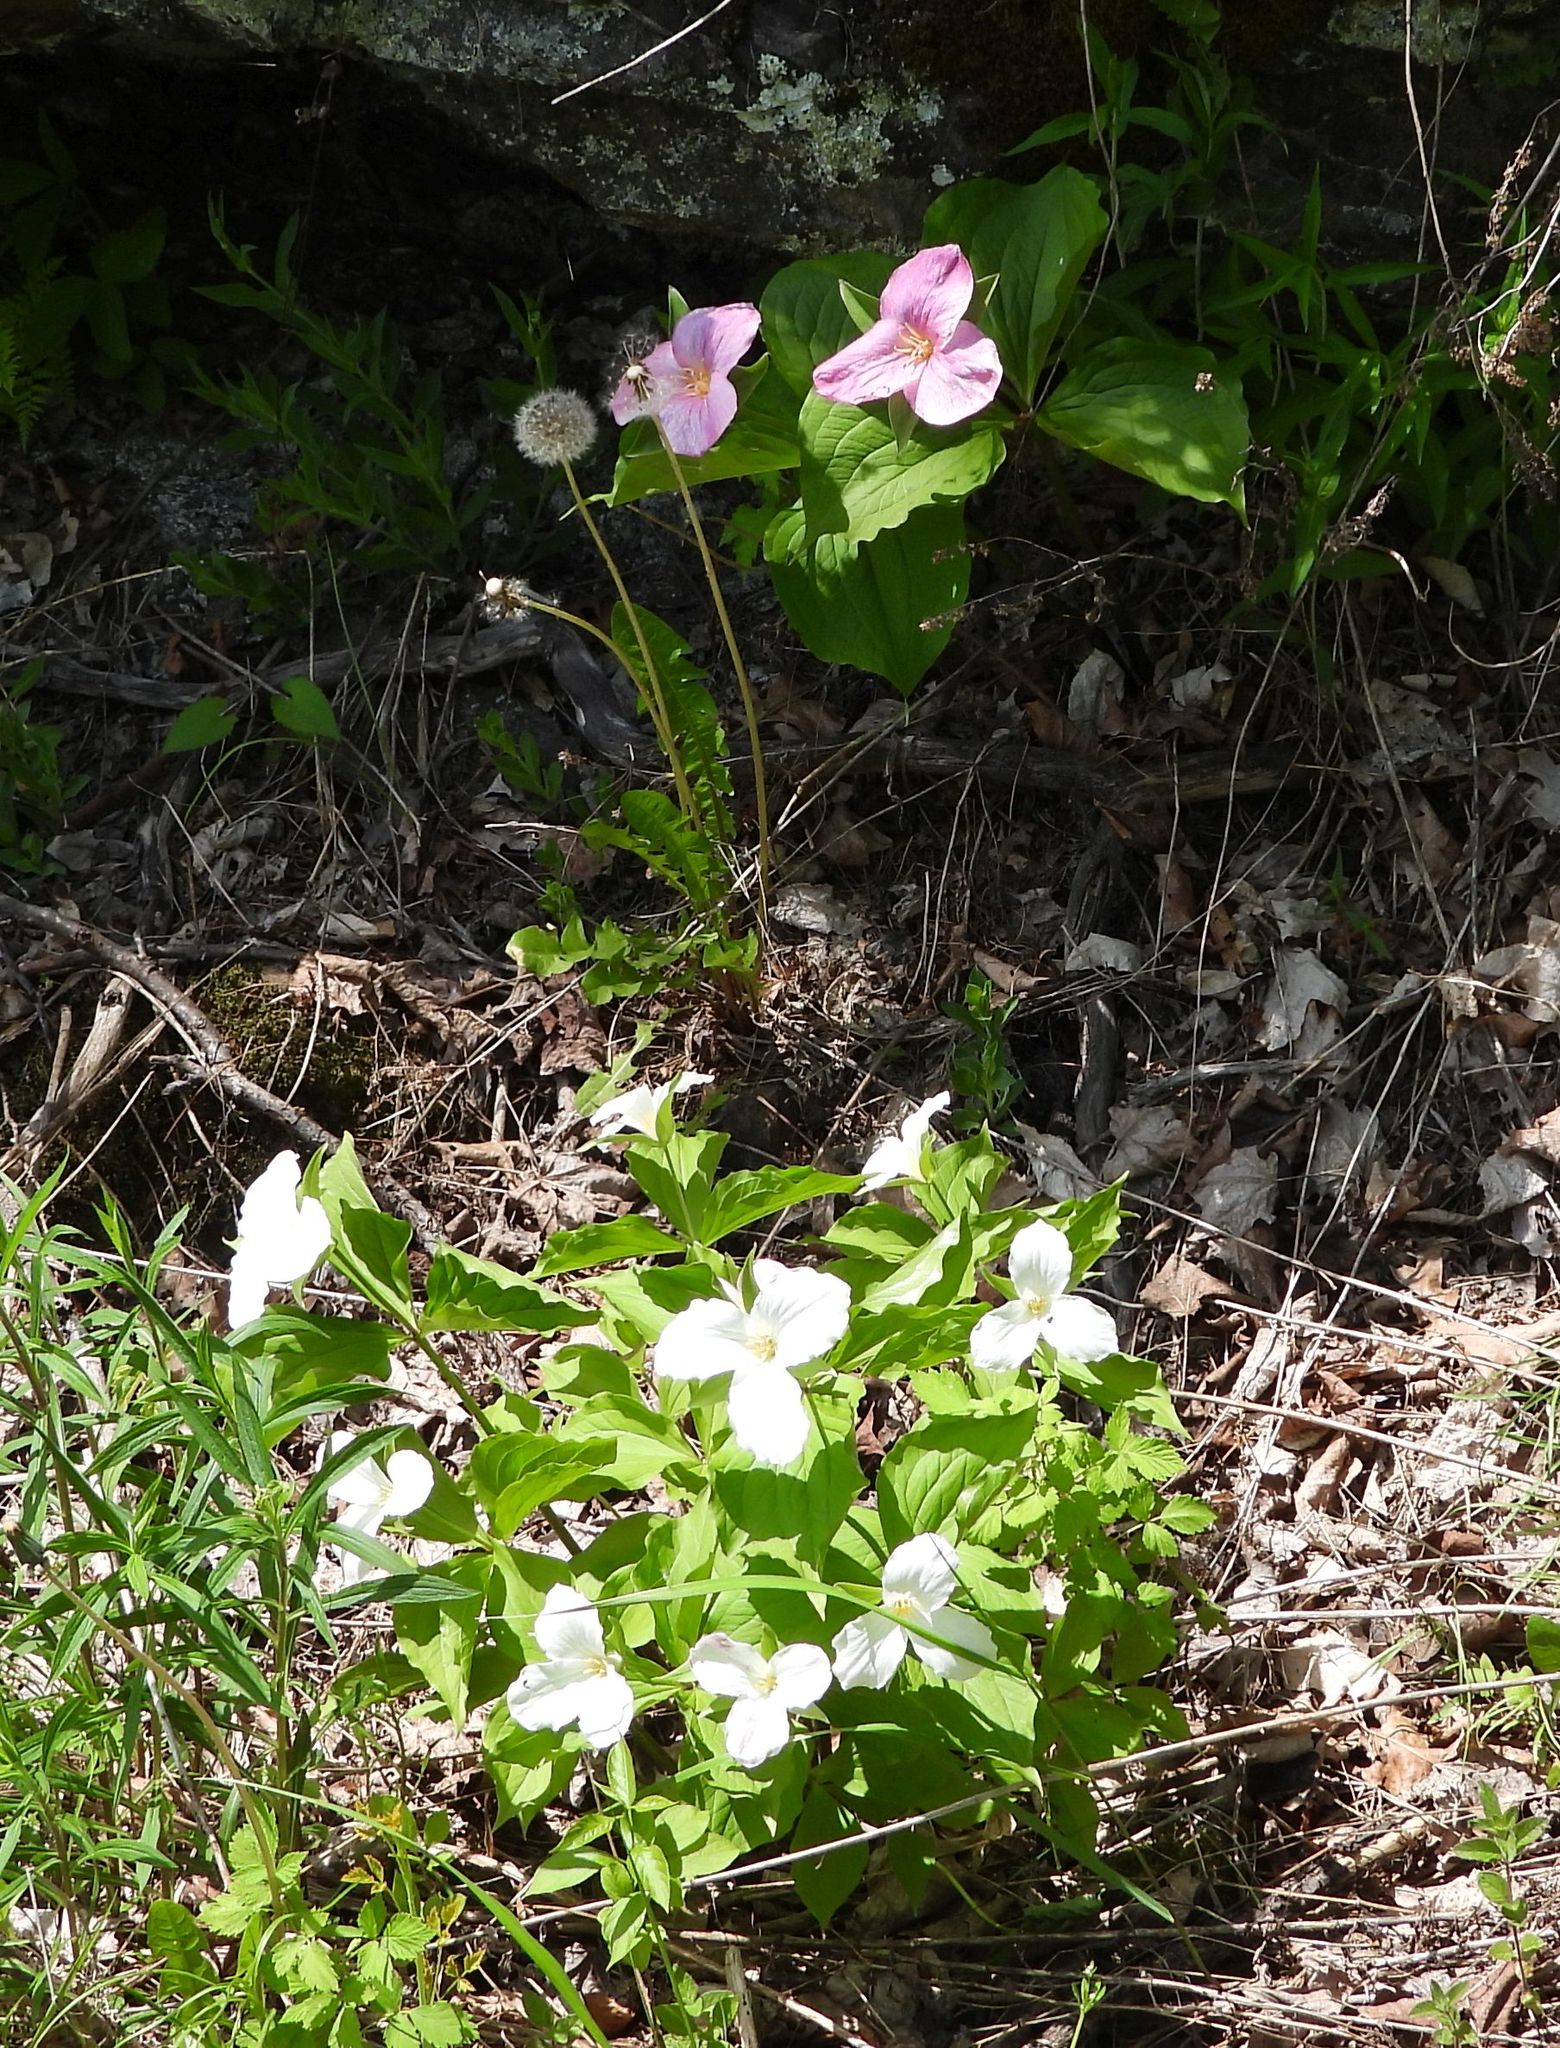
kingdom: Plantae
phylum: Tracheophyta
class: Liliopsida
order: Liliales
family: Melanthiaceae
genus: Trillium
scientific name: Trillium grandiflorum
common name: Great white trillium
